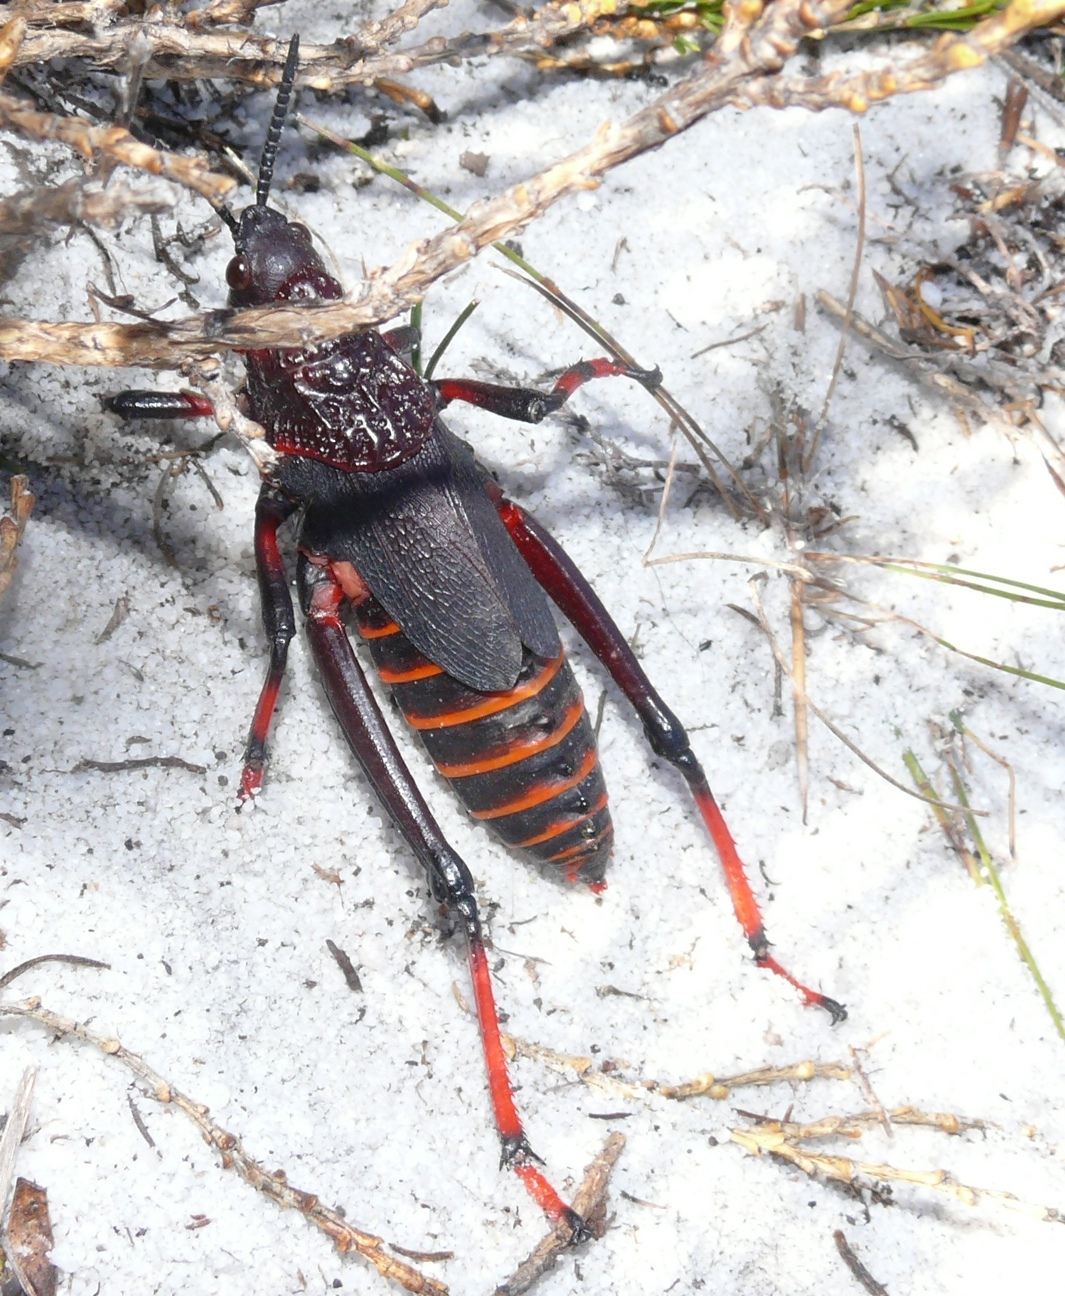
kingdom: Animalia
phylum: Arthropoda
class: Insecta
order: Orthoptera
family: Pyrgomorphidae
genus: Dictyophorus
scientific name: Dictyophorus spumans
